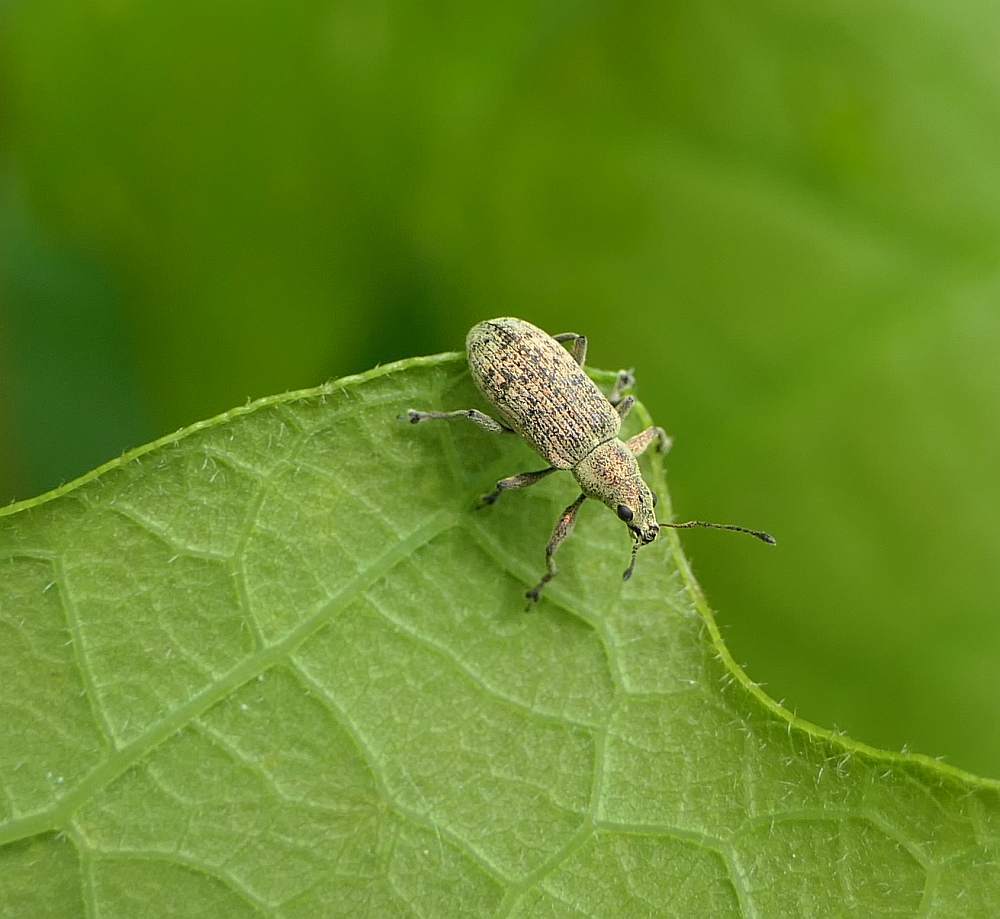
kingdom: Animalia
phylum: Arthropoda
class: Insecta
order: Coleoptera
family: Curculionidae
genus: Polydrusus
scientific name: Polydrusus cervinus
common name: Weevil
